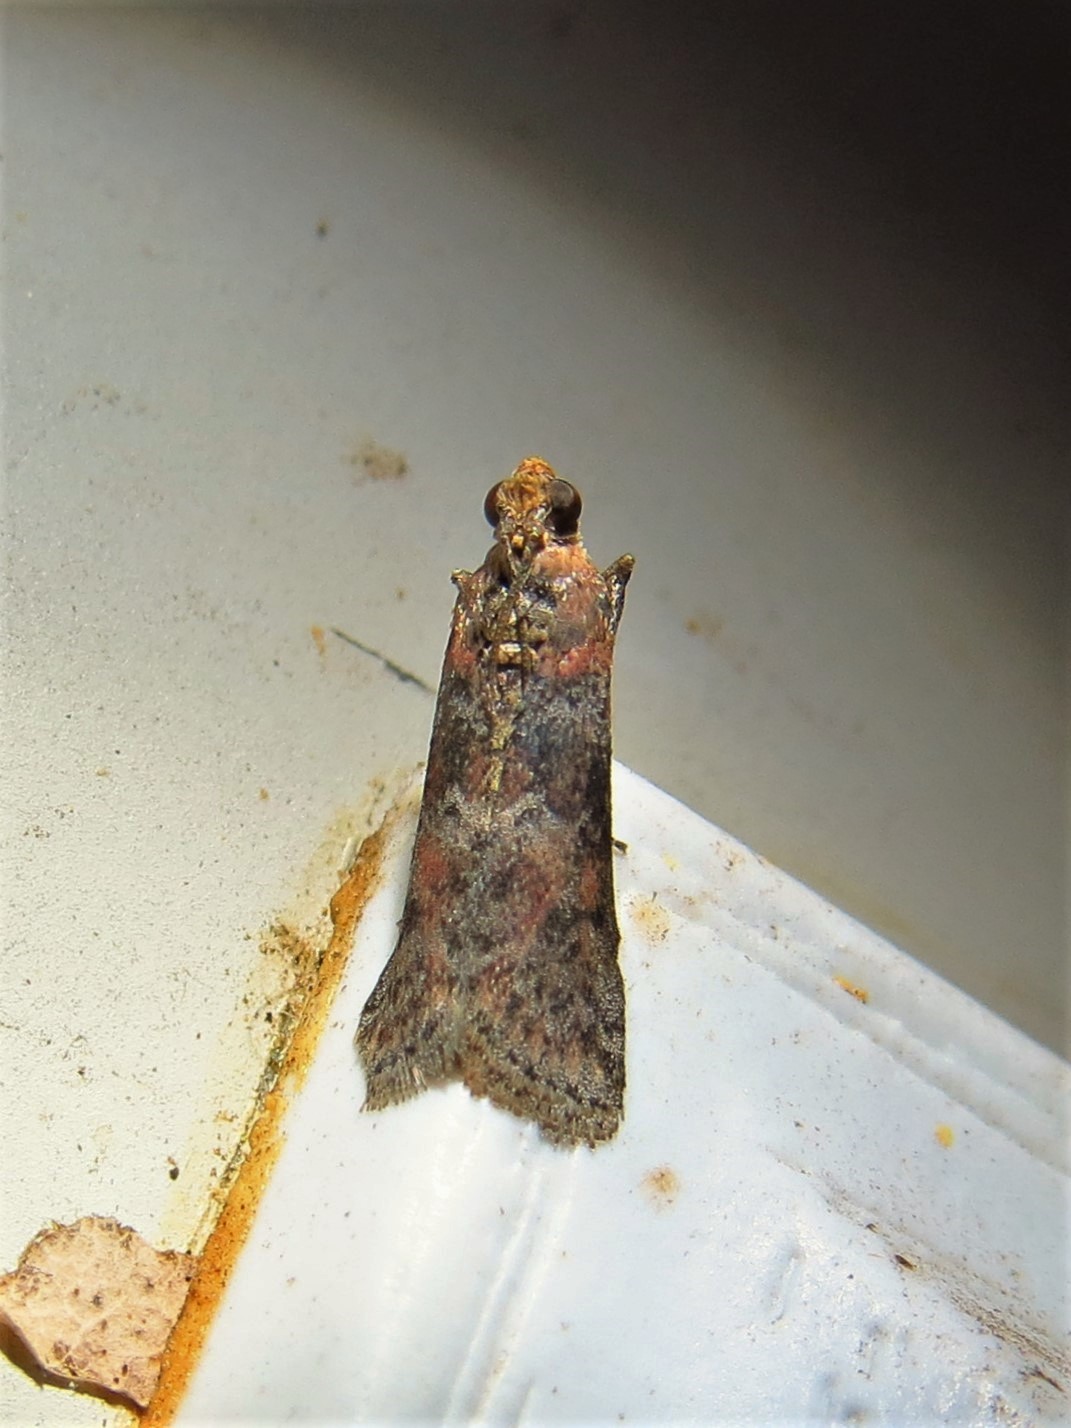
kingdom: Animalia
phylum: Arthropoda
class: Insecta
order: Lepidoptera
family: Pyralidae
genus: Sciota
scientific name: Sciota celtidella
